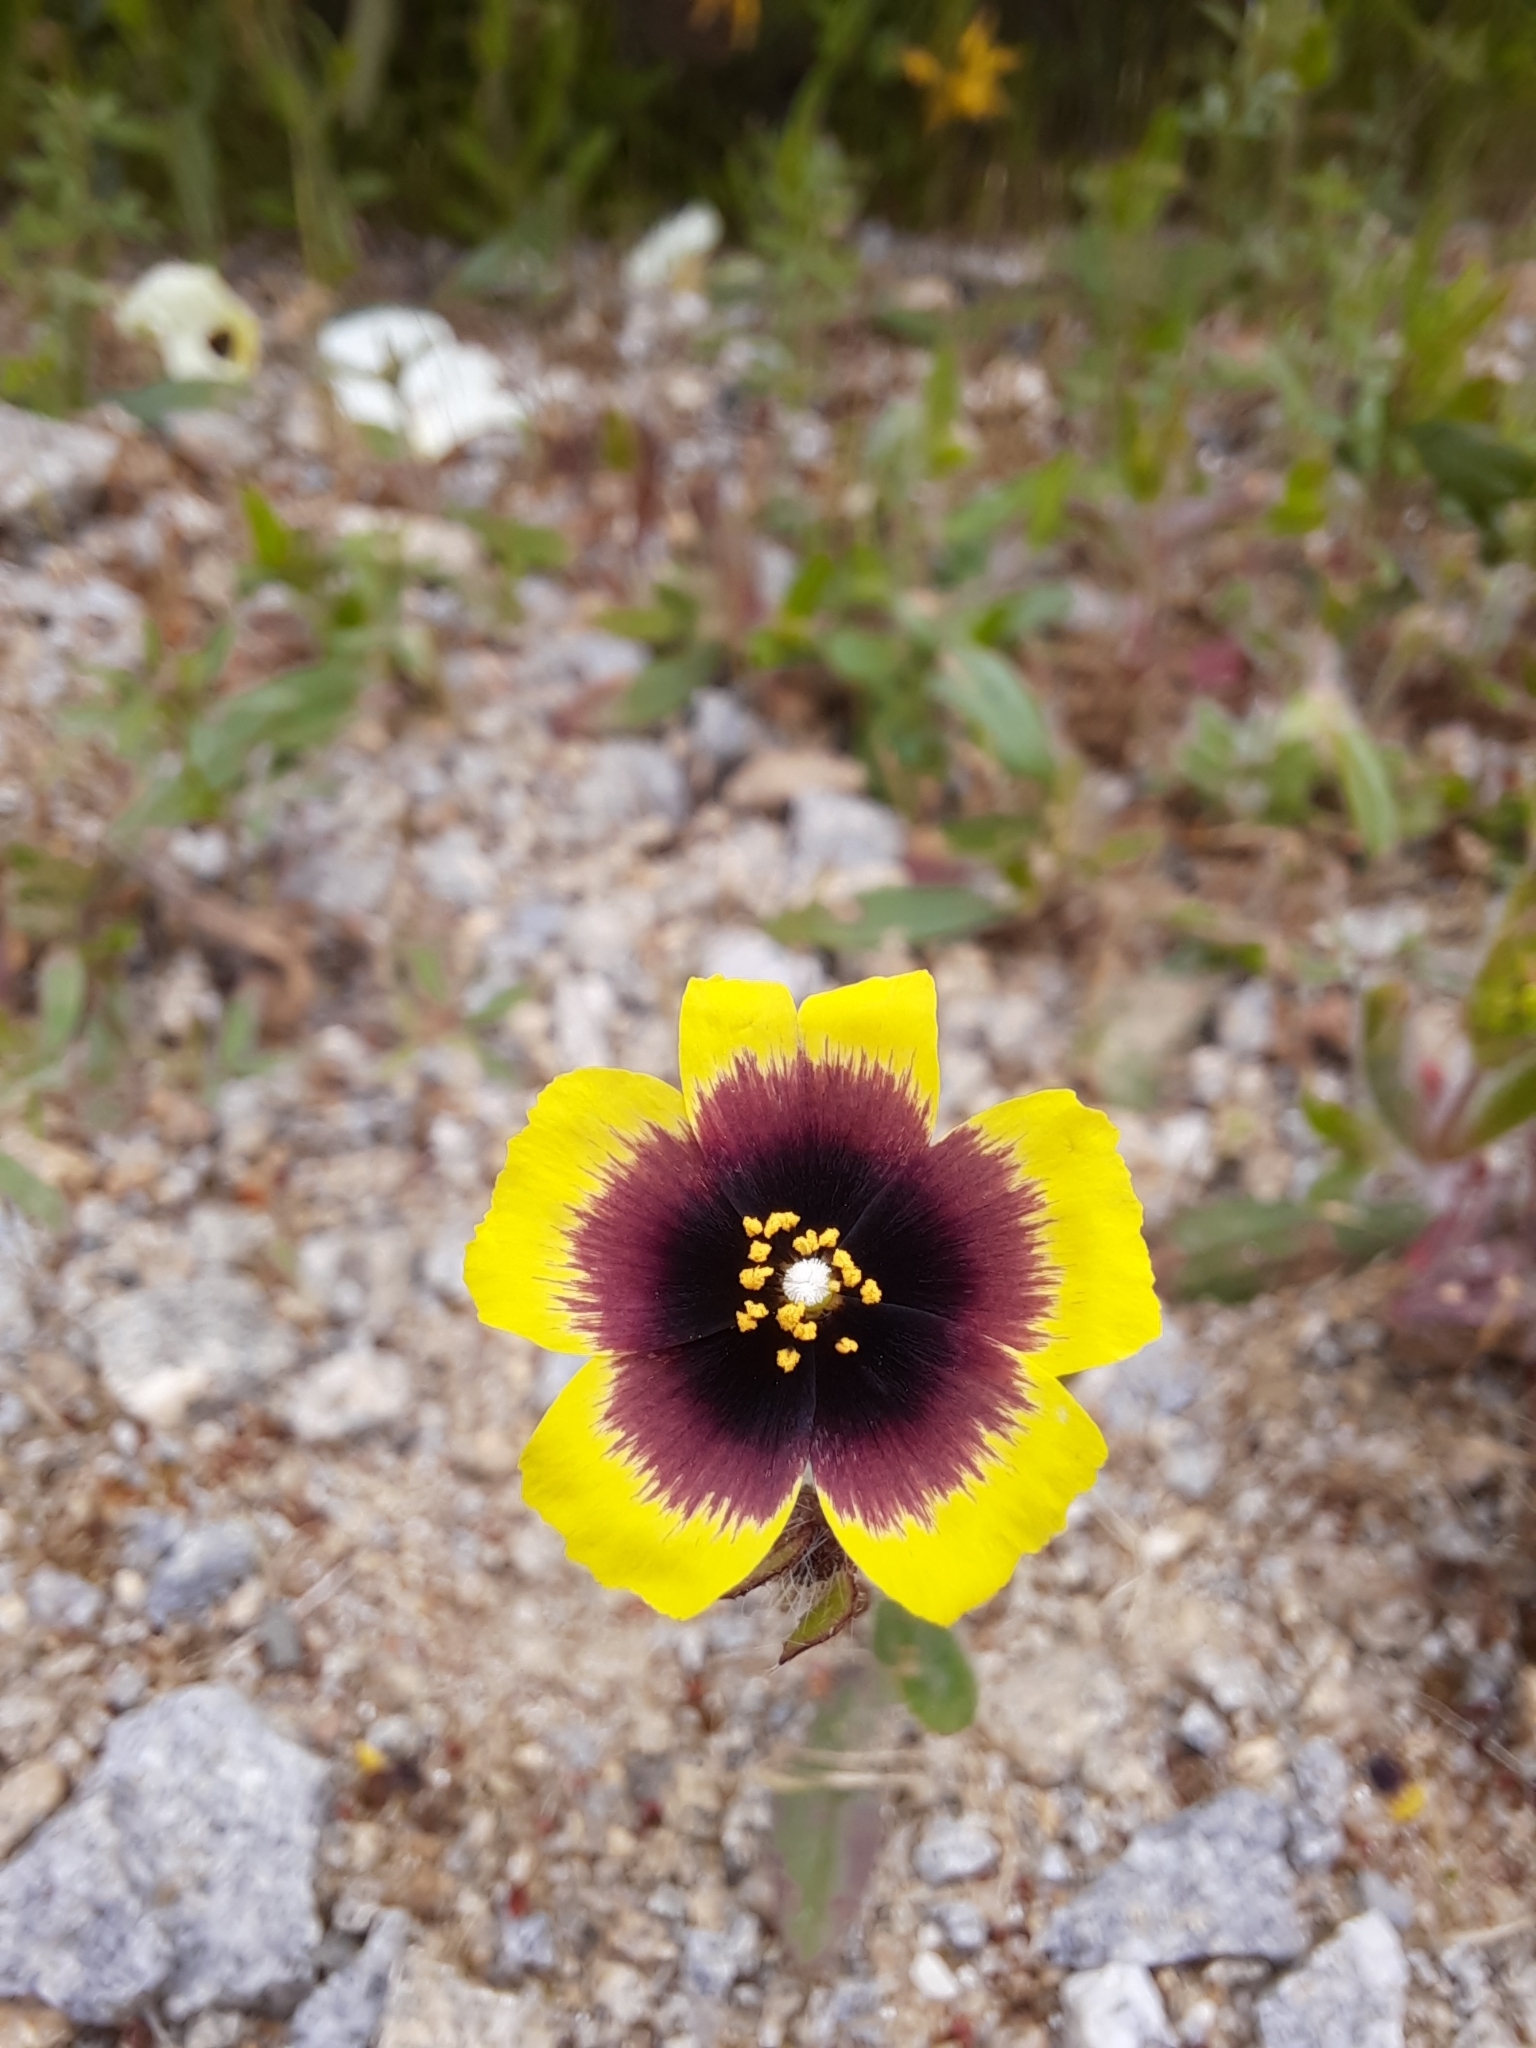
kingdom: Plantae
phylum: Tracheophyta
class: Magnoliopsida
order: Malvales
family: Cistaceae
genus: Tuberaria
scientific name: Tuberaria guttata
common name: Spotted rock-rose
